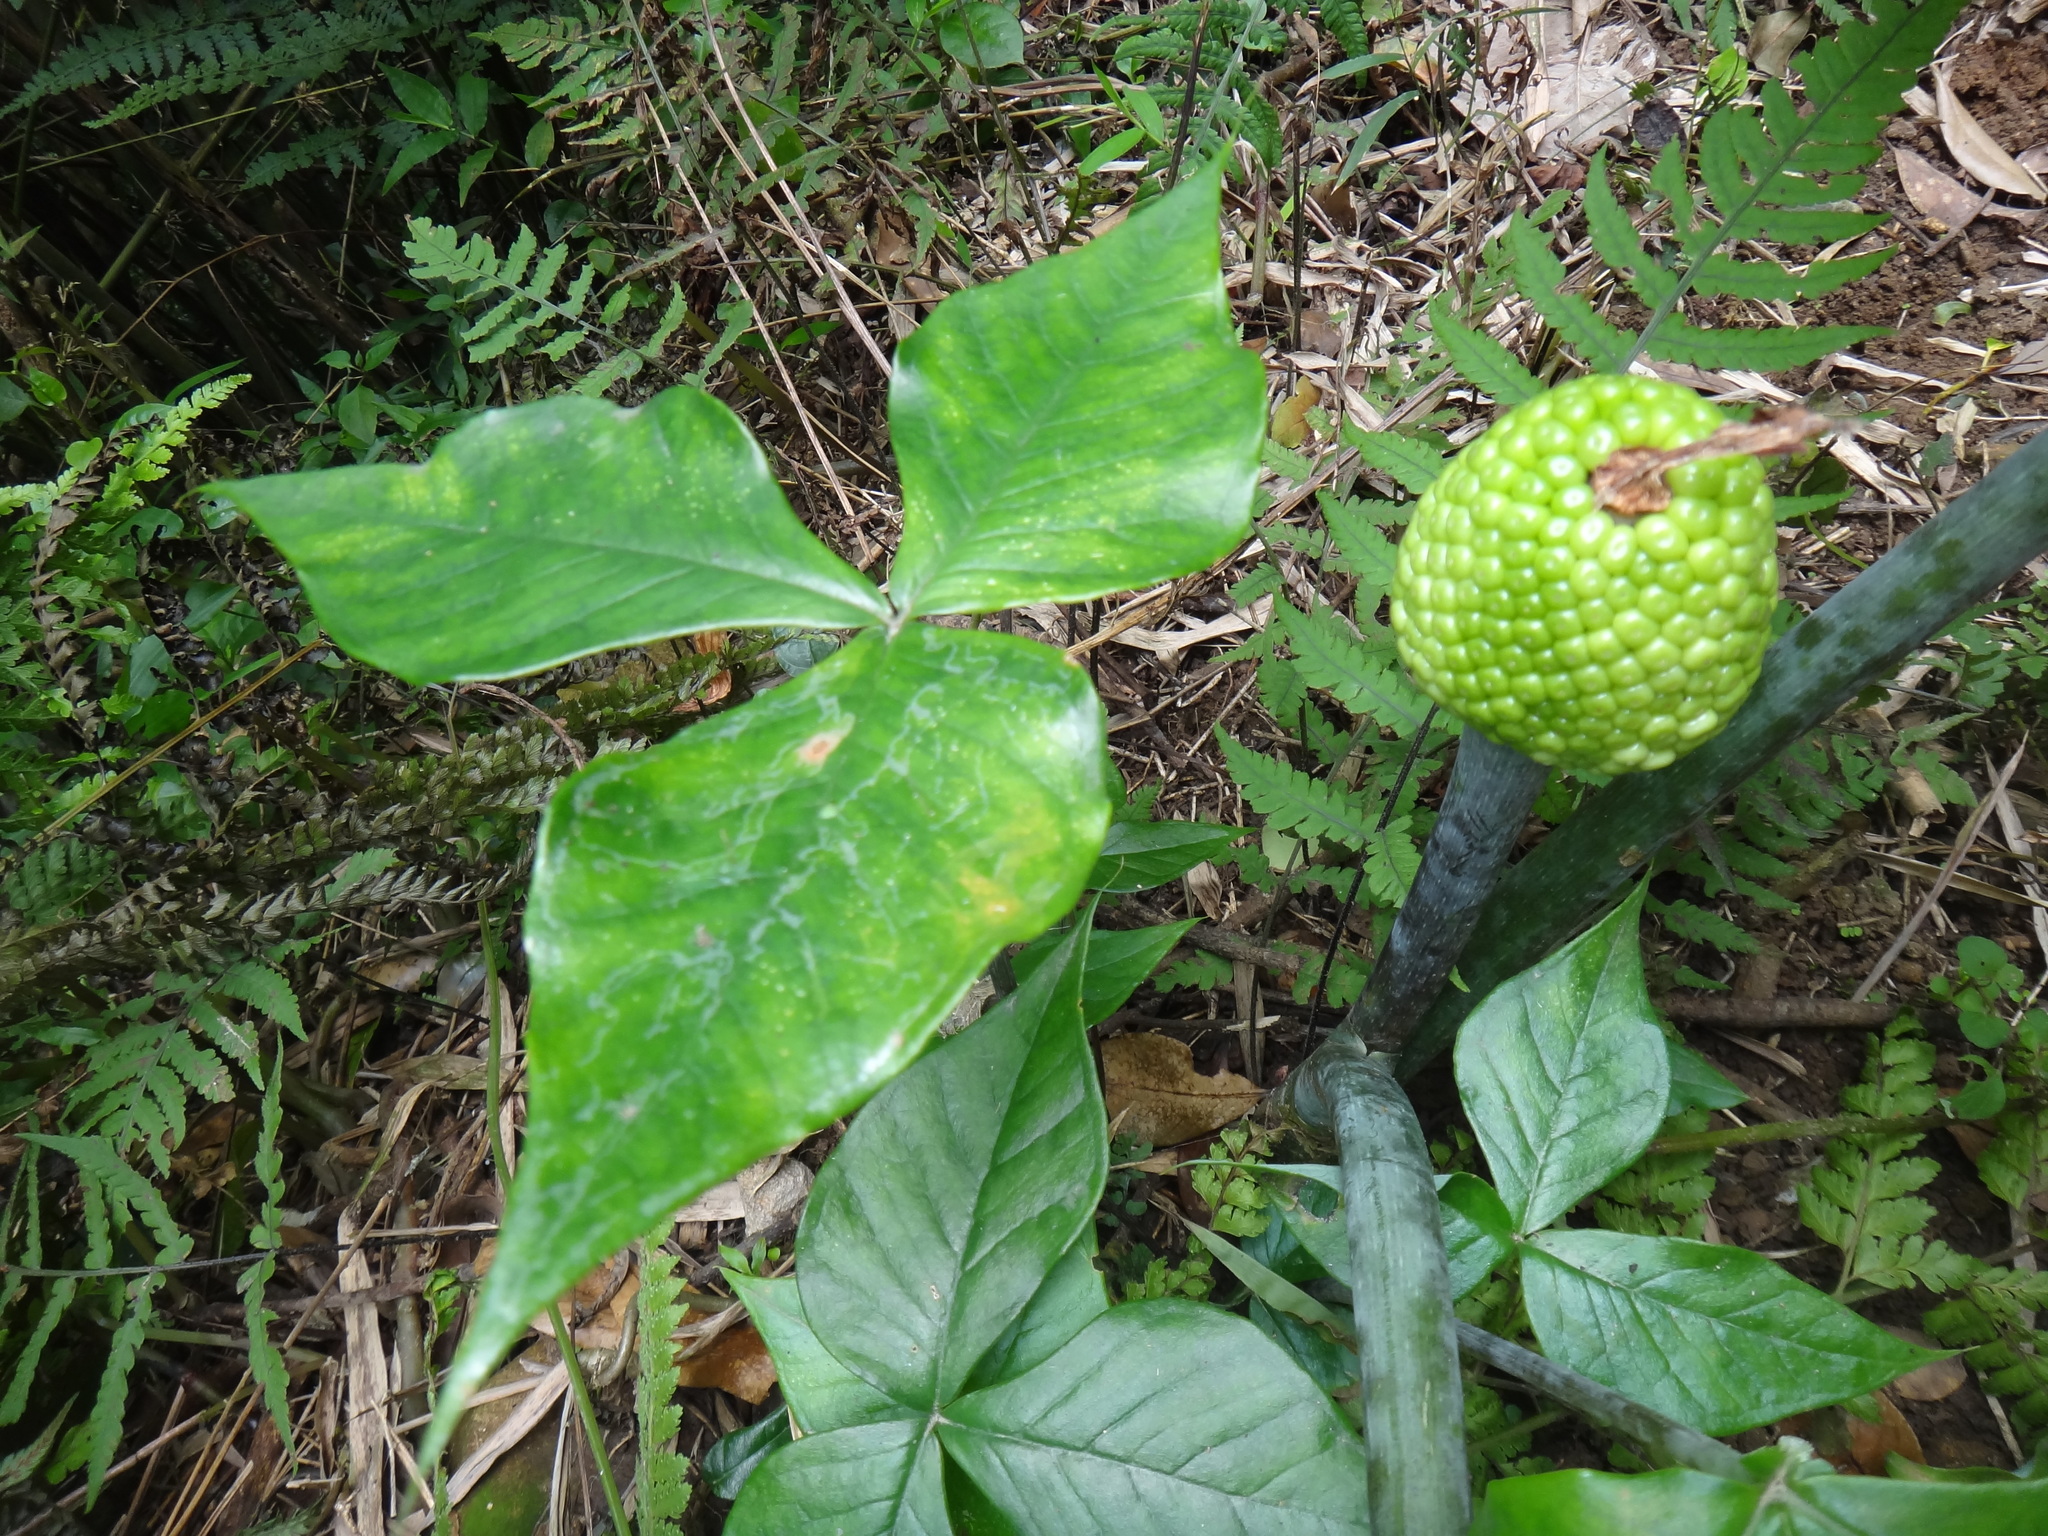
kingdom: Plantae
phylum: Tracheophyta
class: Liliopsida
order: Alismatales
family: Araceae
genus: Arisaema
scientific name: Arisaema ringens
